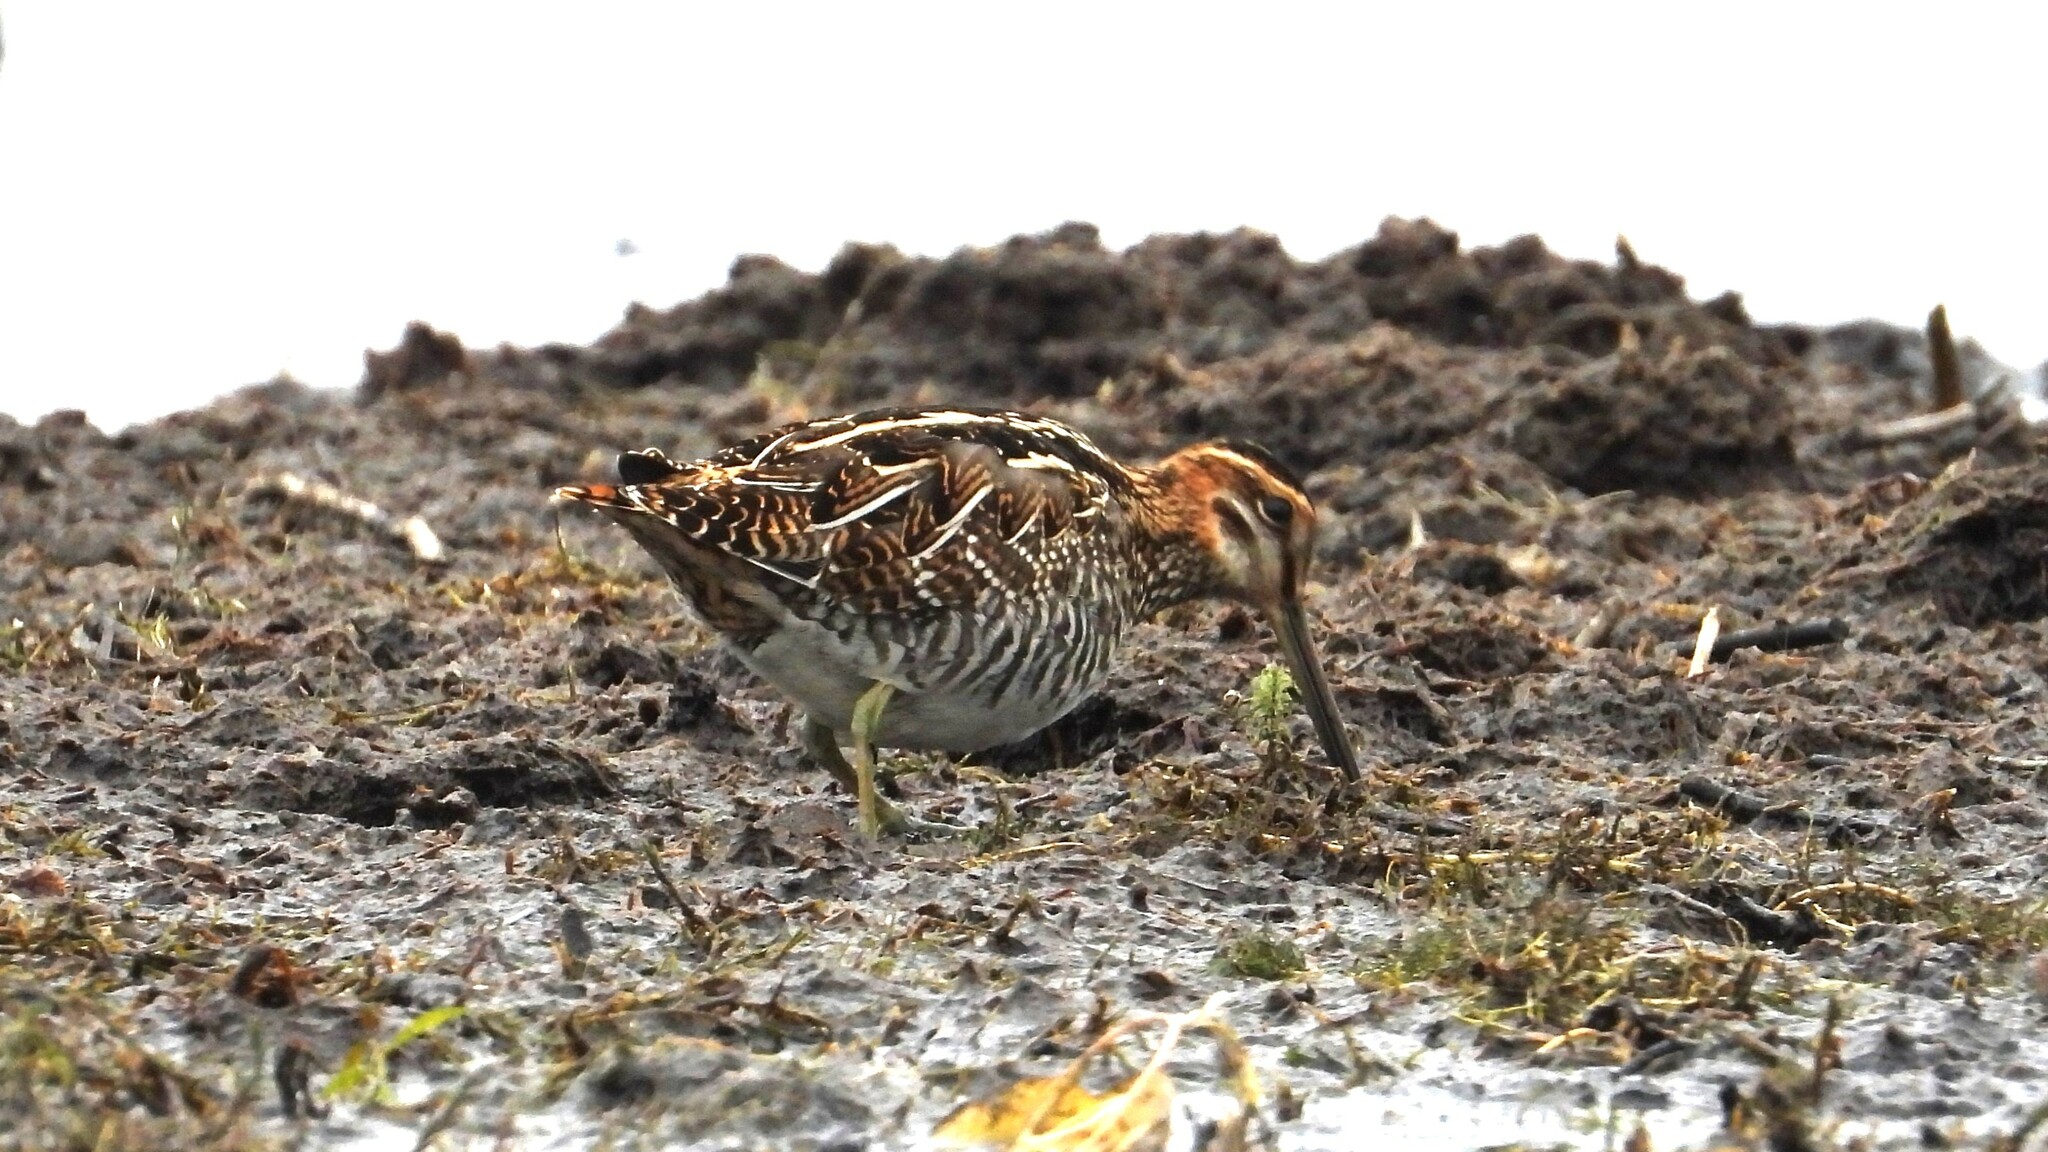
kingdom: Animalia
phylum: Chordata
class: Aves
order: Charadriiformes
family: Scolopacidae
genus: Gallinago
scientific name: Gallinago delicata
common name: Wilson's snipe
